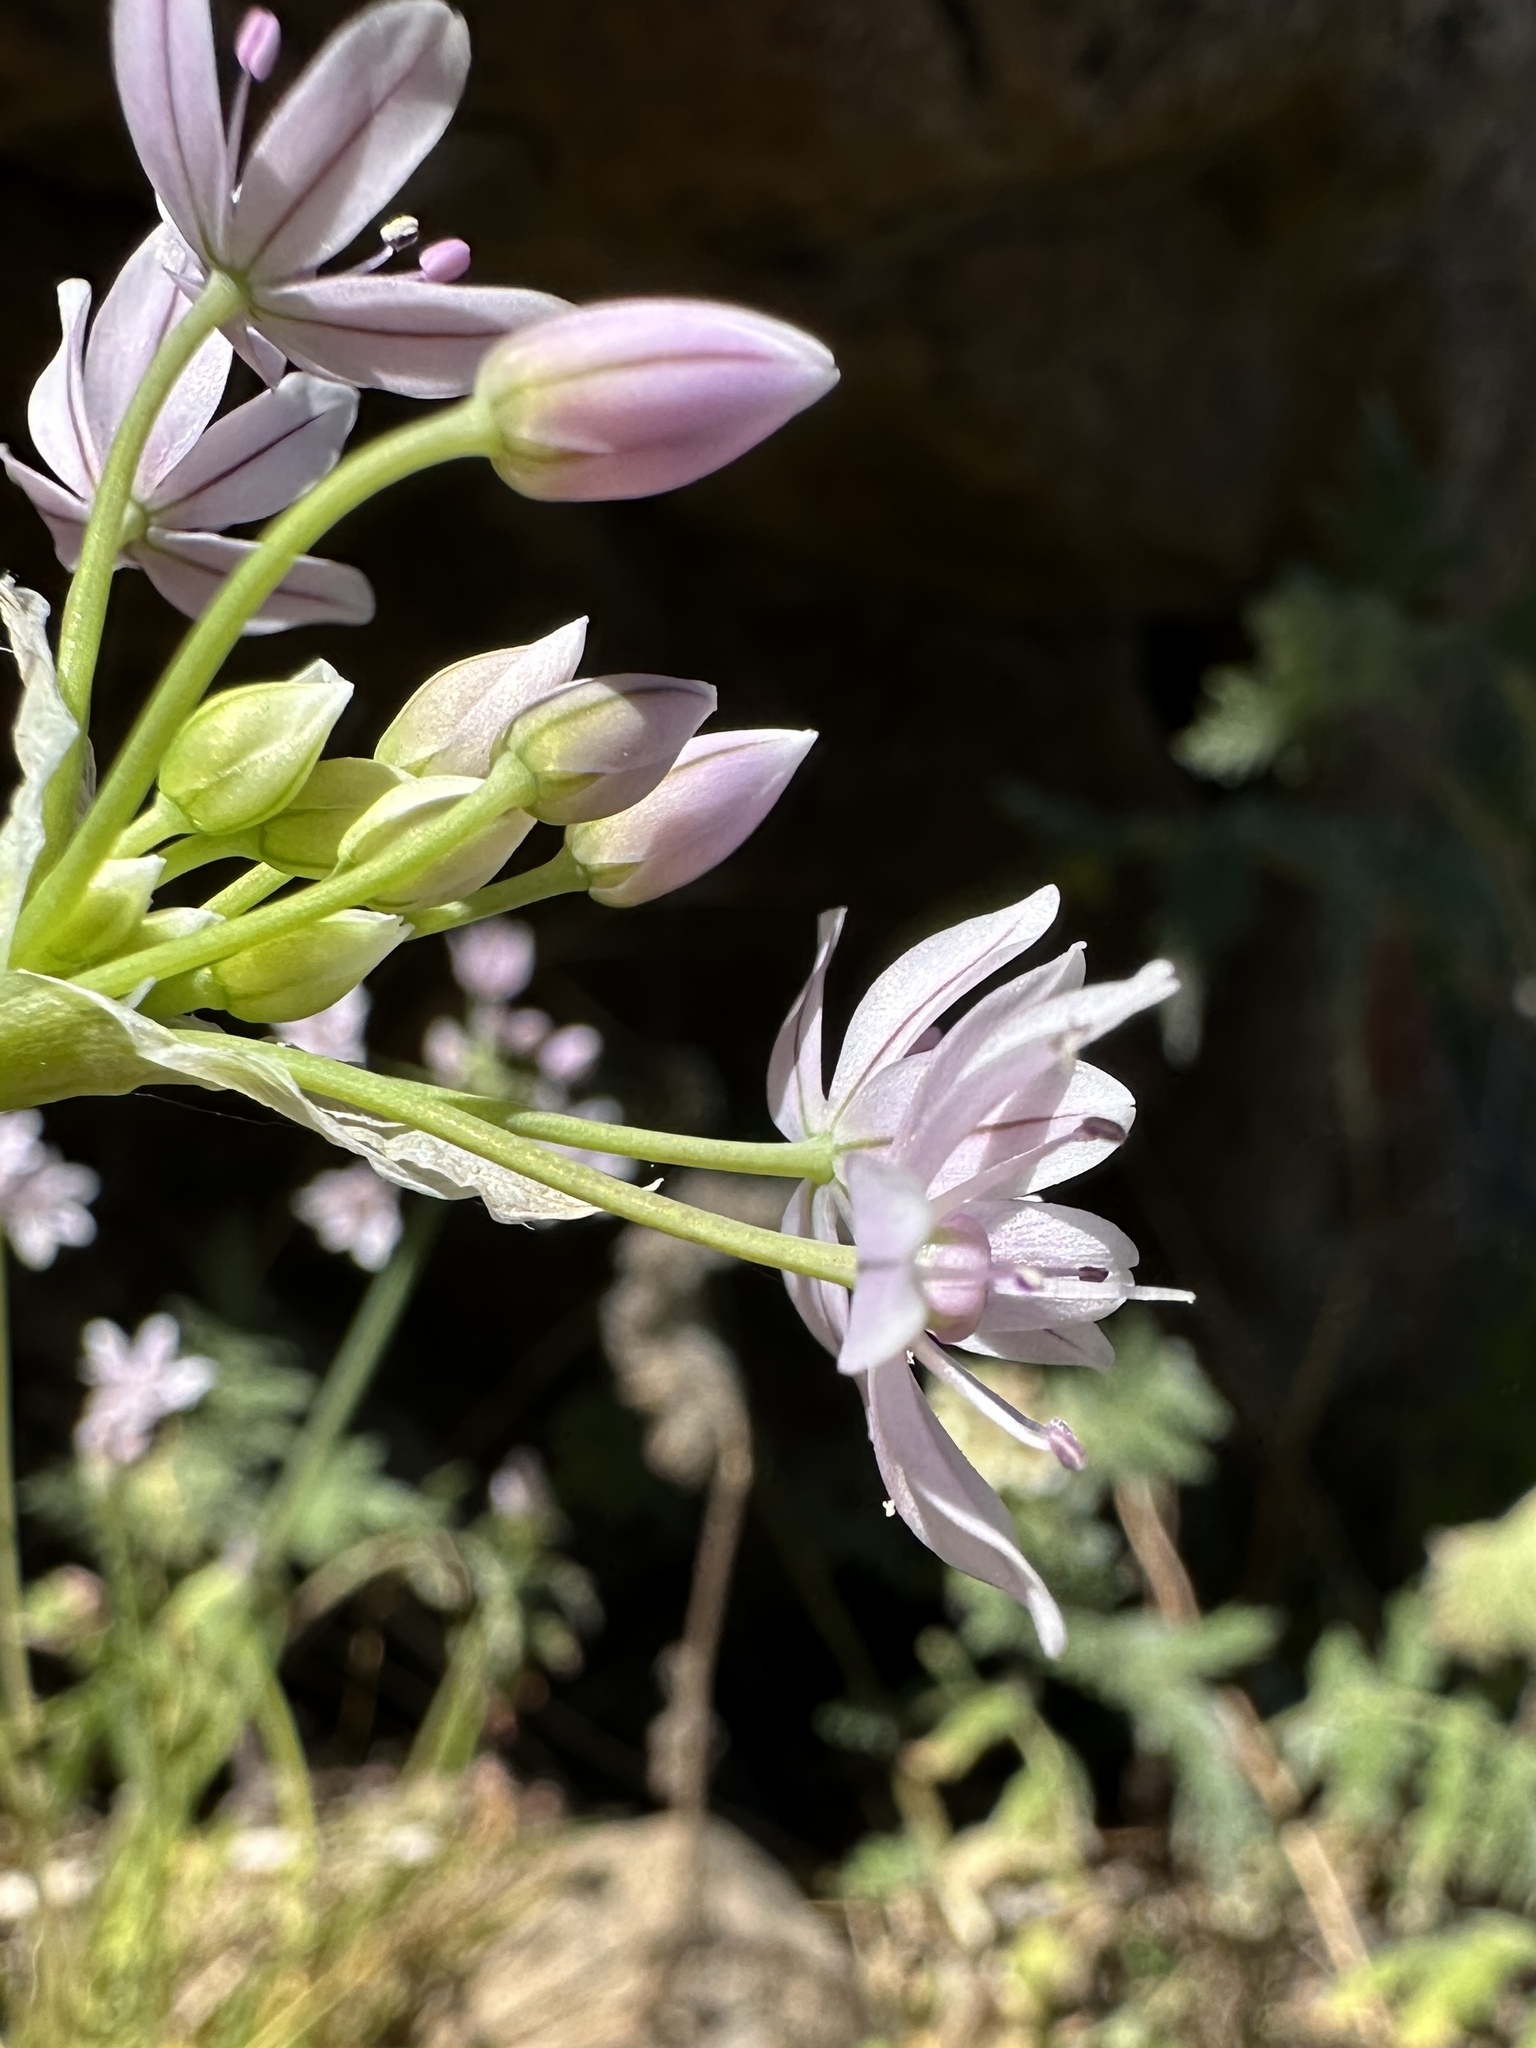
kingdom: Plantae
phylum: Tracheophyta
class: Liliopsida
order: Asparagales
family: Amaryllidaceae
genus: Allium
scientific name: Allium hyalinum
